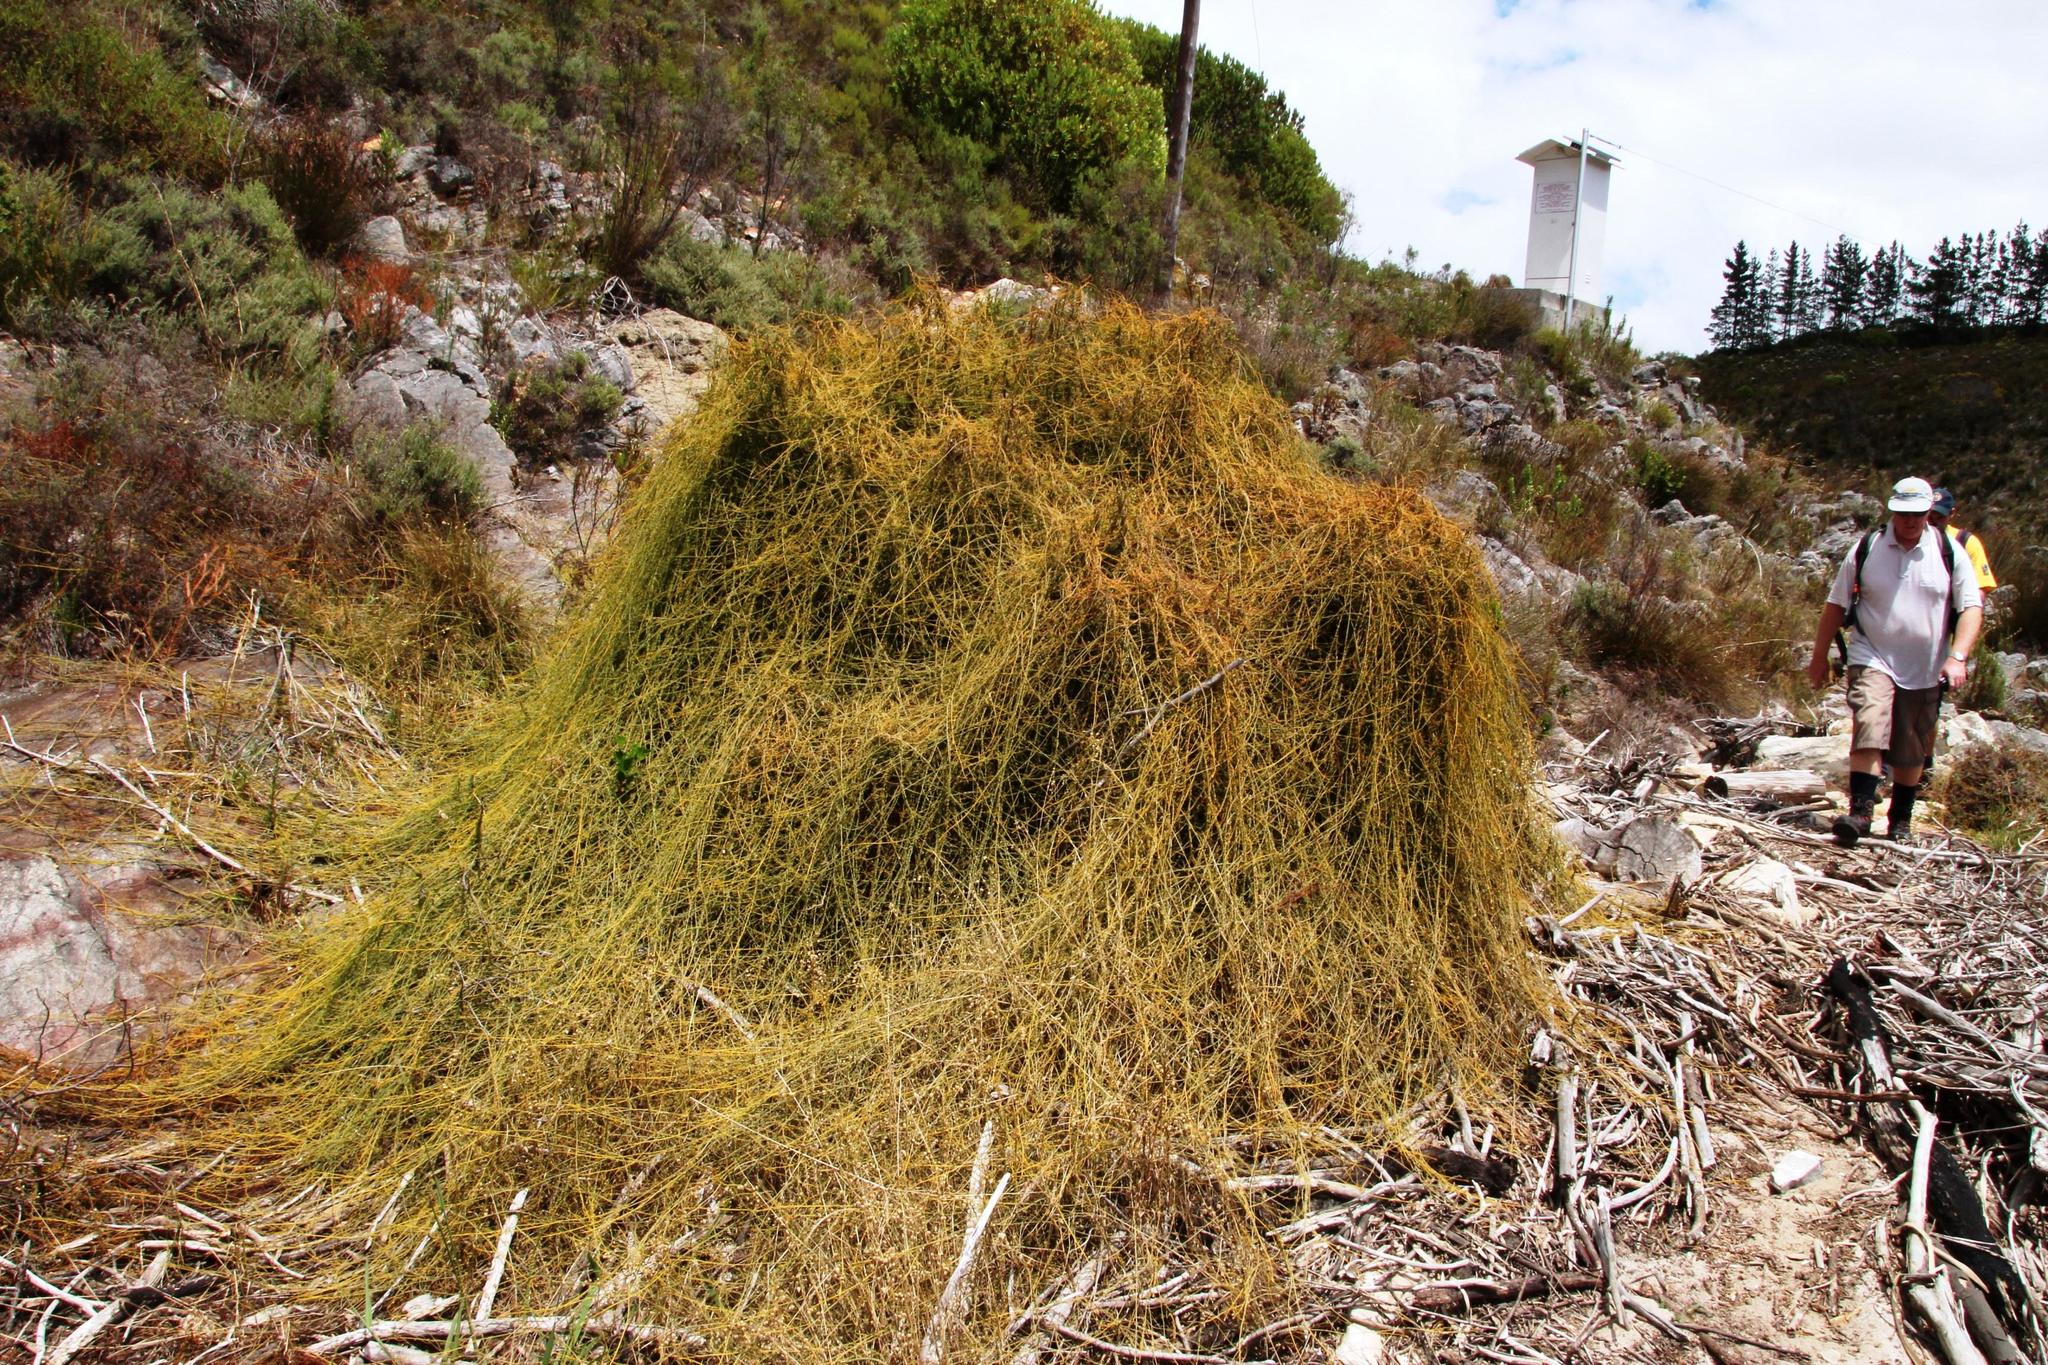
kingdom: Plantae
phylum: Tracheophyta
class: Magnoliopsida
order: Laurales
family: Lauraceae
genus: Cassytha
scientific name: Cassytha ciliolata
